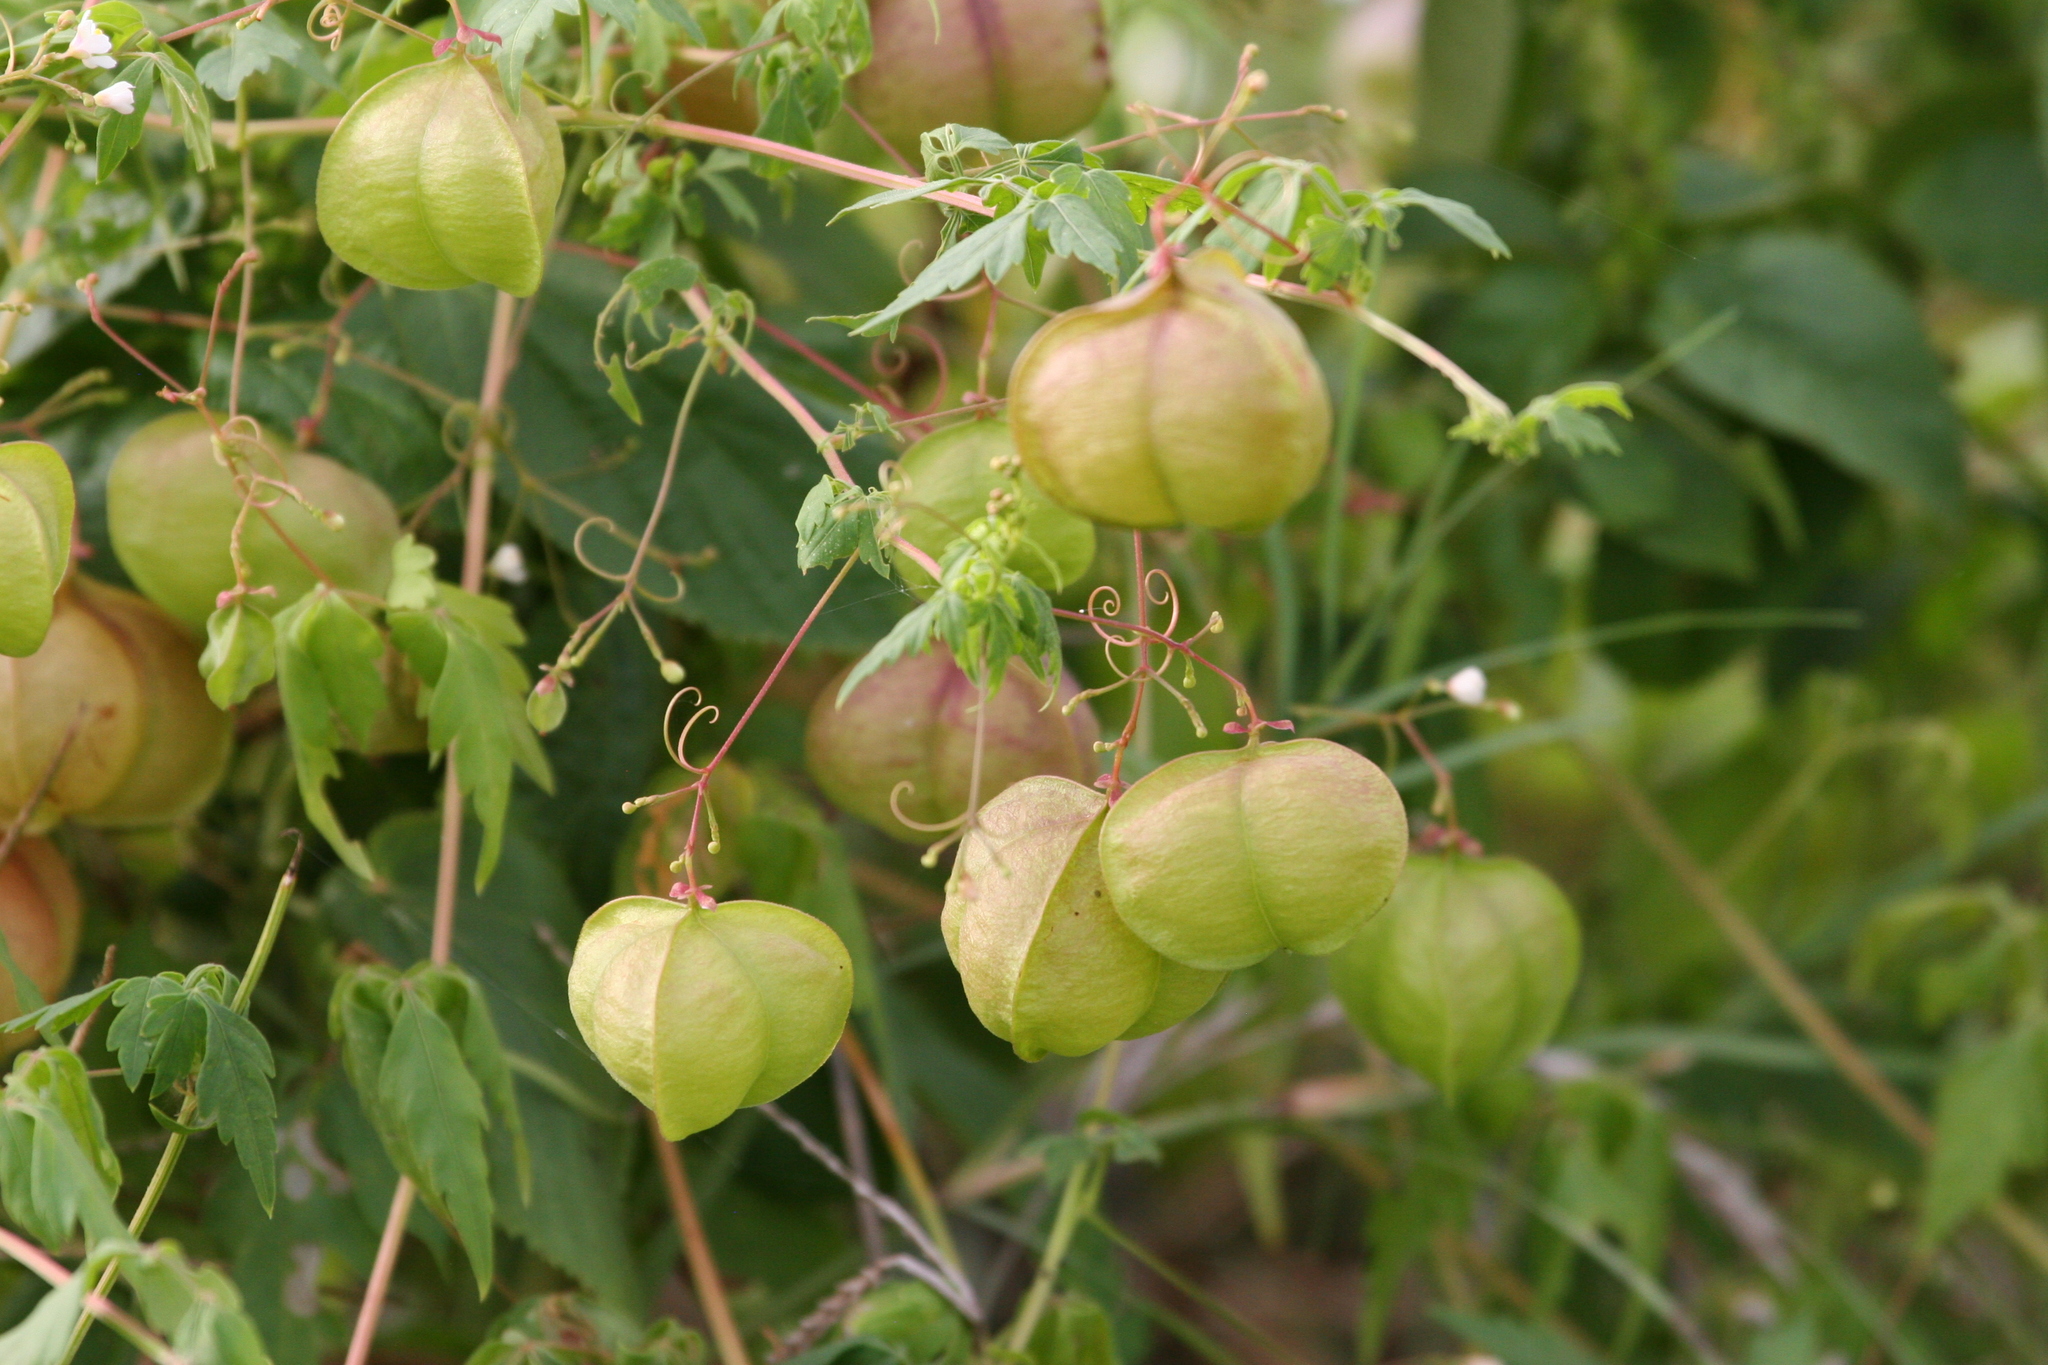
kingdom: Plantae
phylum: Tracheophyta
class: Magnoliopsida
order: Sapindales
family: Sapindaceae
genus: Cardiospermum
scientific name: Cardiospermum halicacabum
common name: Balloon vine
